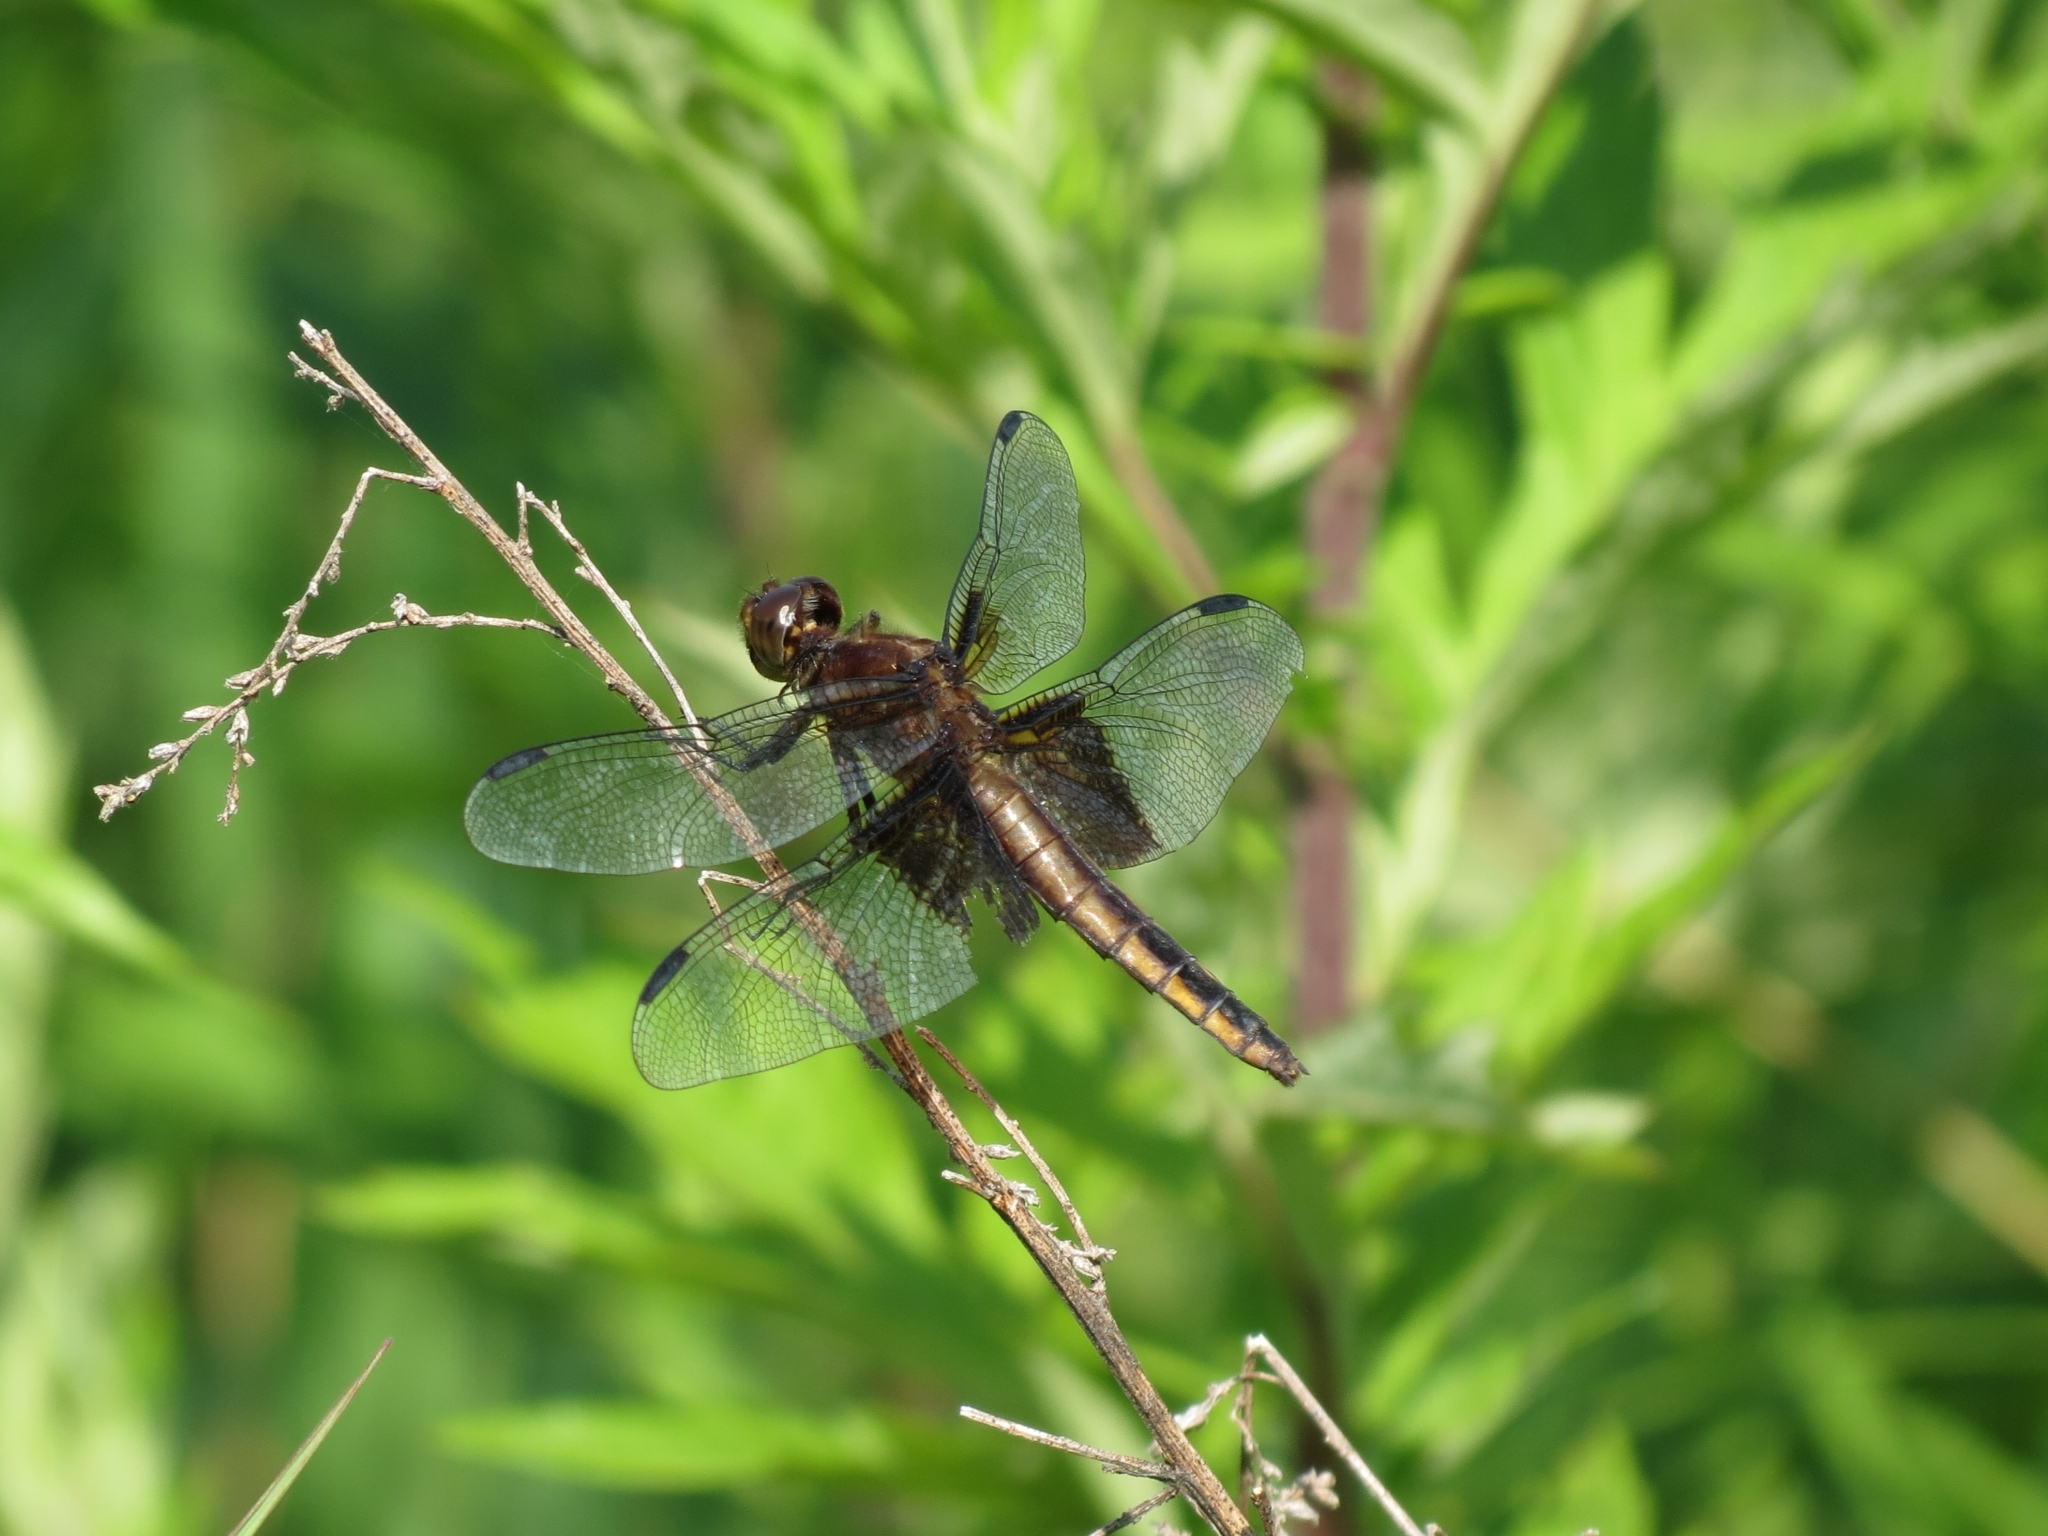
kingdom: Animalia
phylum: Arthropoda
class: Insecta
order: Odonata
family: Libellulidae
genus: Libellula
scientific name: Libellula luctuosa
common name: Widow skimmer
